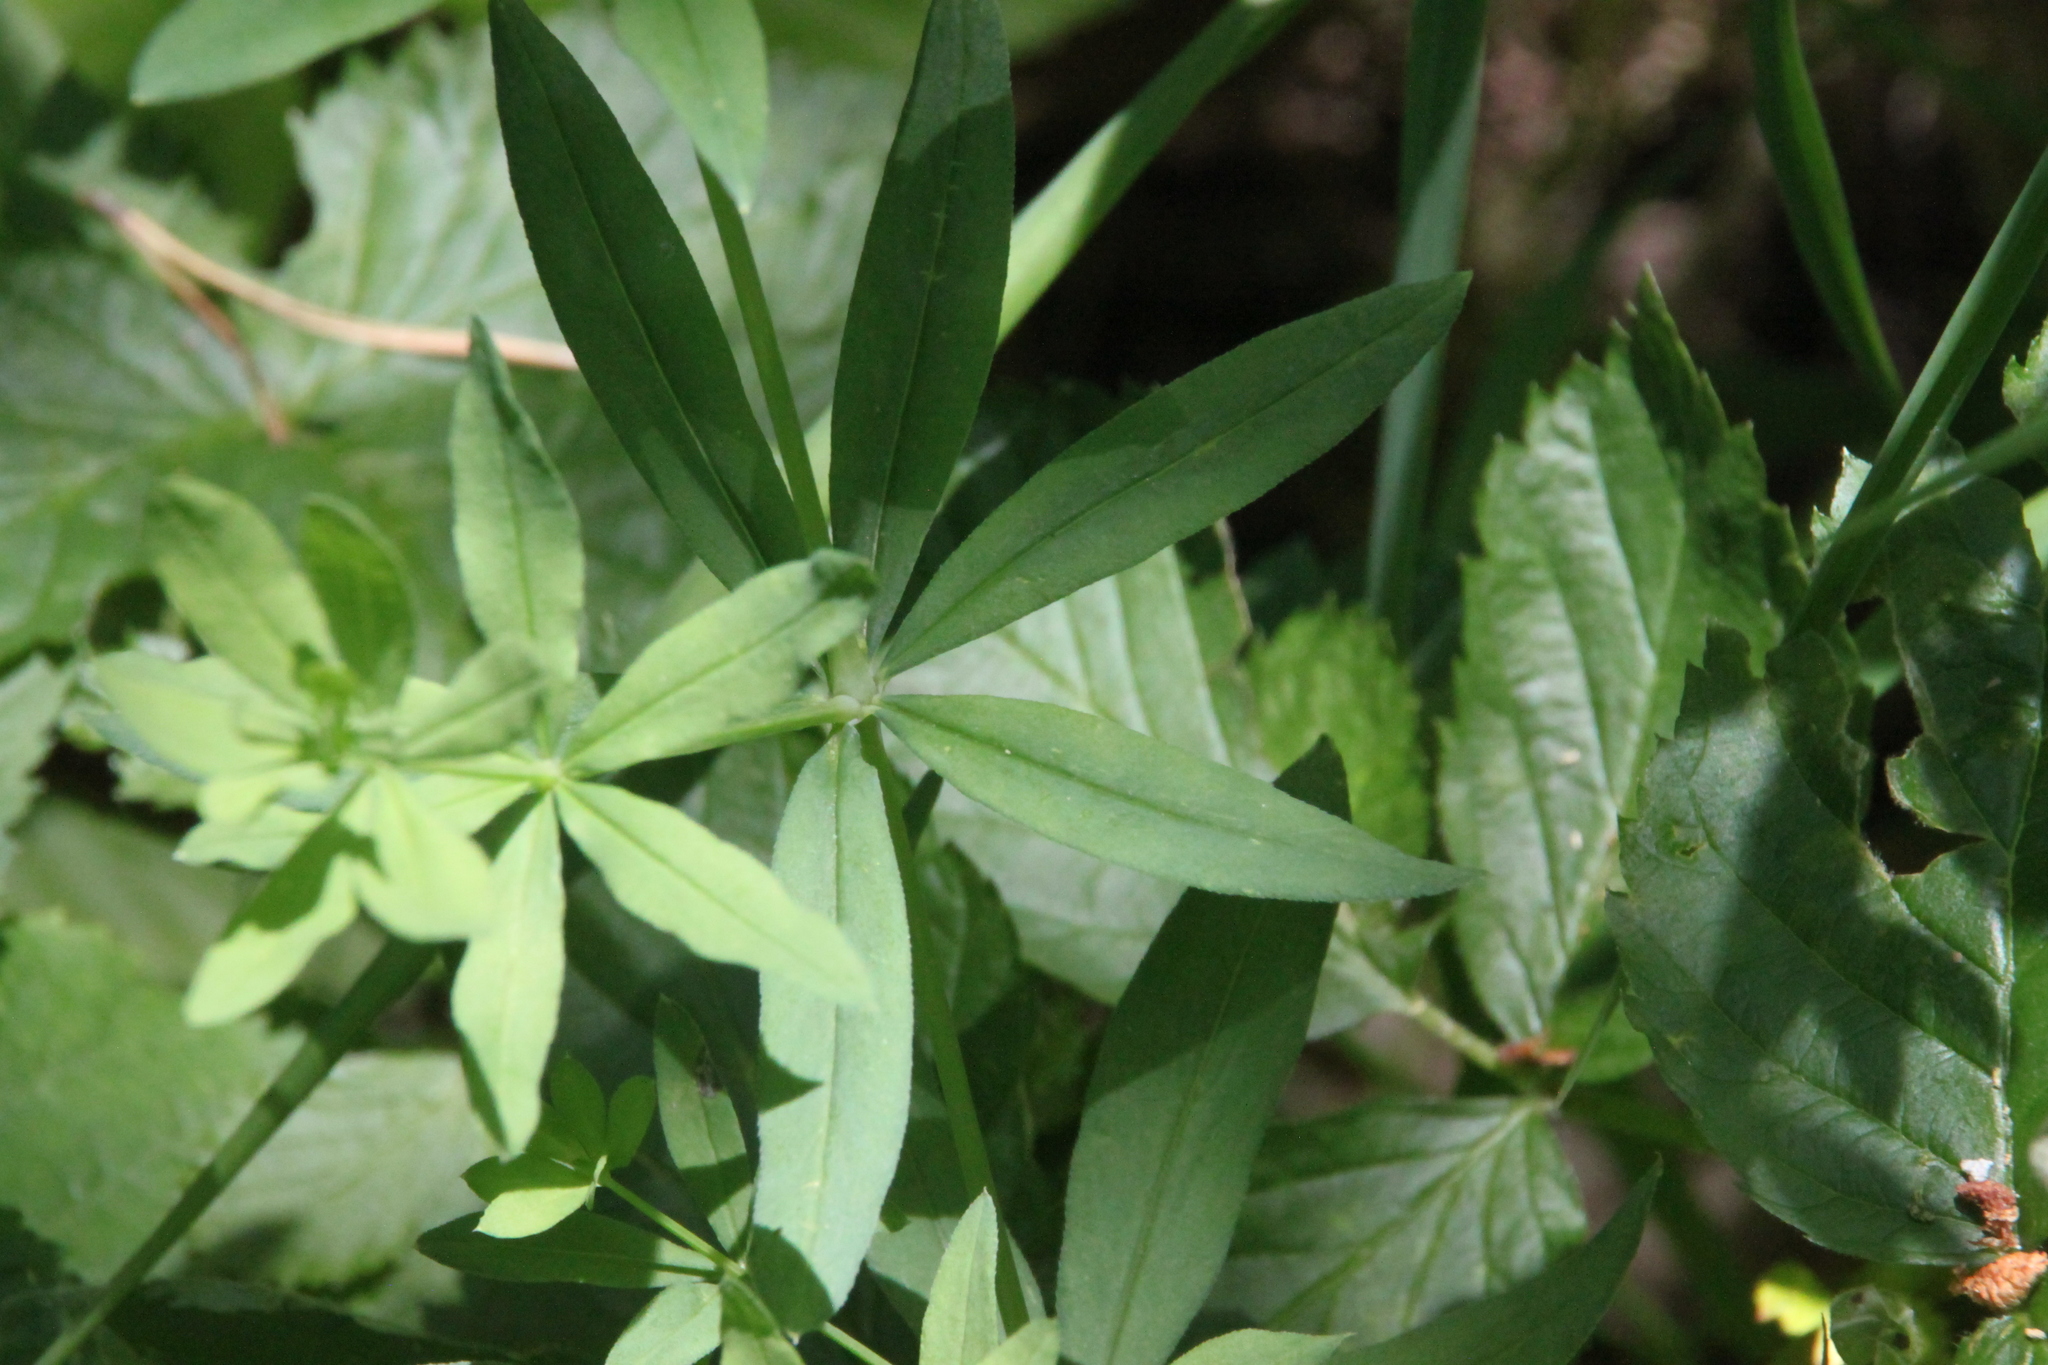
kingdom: Plantae
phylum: Tracheophyta
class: Magnoliopsida
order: Gentianales
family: Rubiaceae
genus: Galium
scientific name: Galium intermedium
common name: Bedstraw
